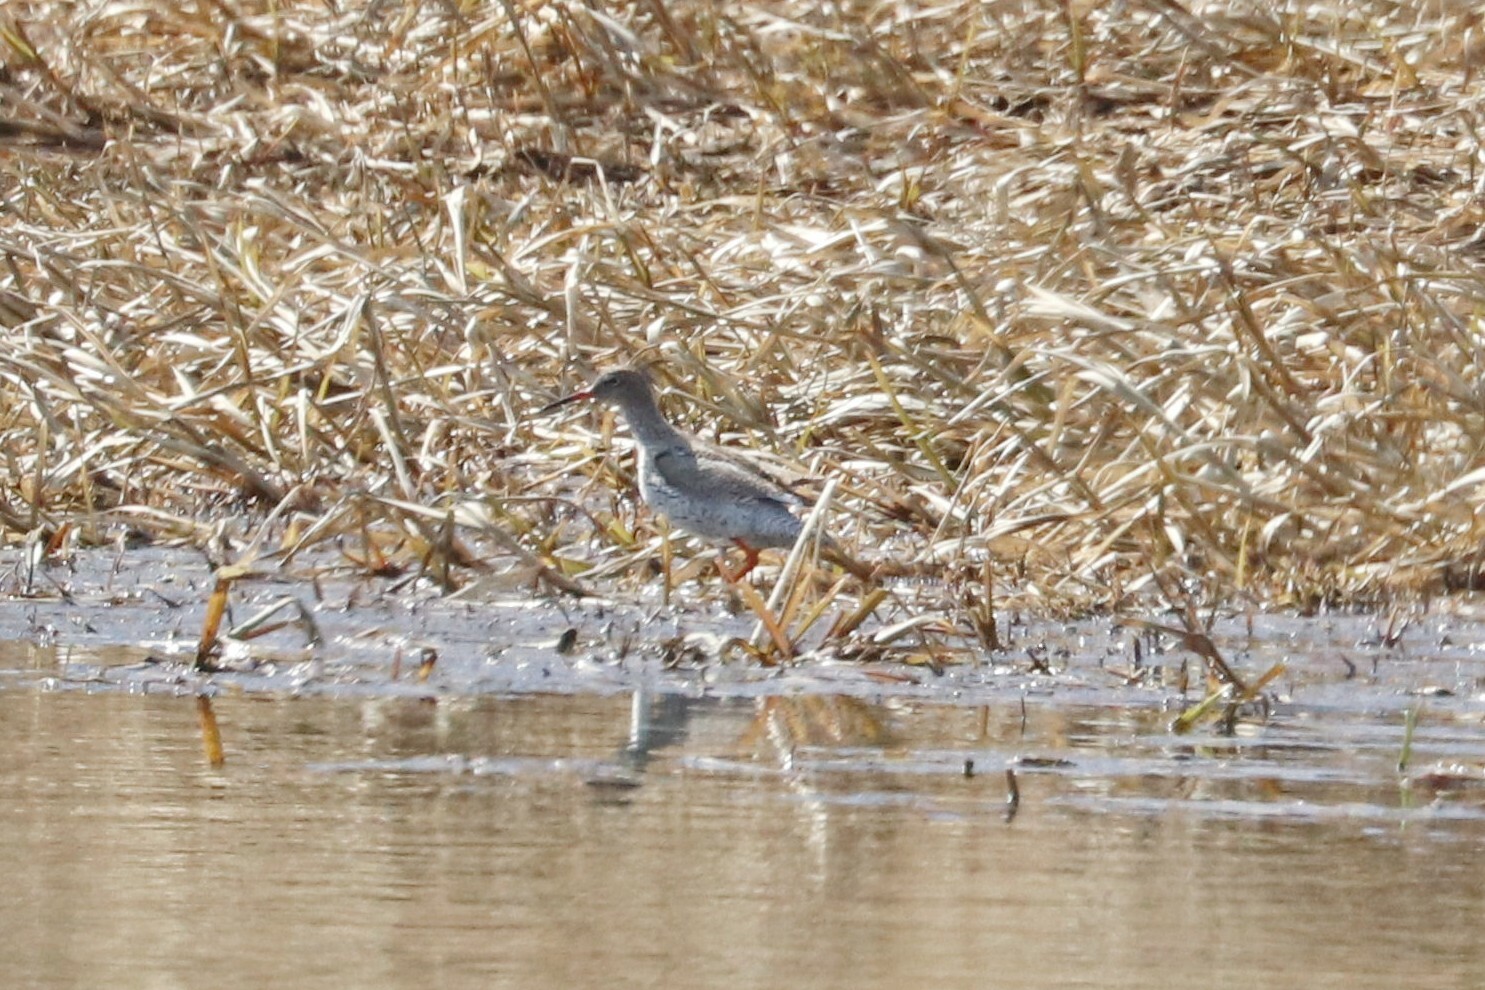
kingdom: Animalia
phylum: Chordata
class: Aves
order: Charadriiformes
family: Scolopacidae
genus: Tringa
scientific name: Tringa totanus
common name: Common redshank
